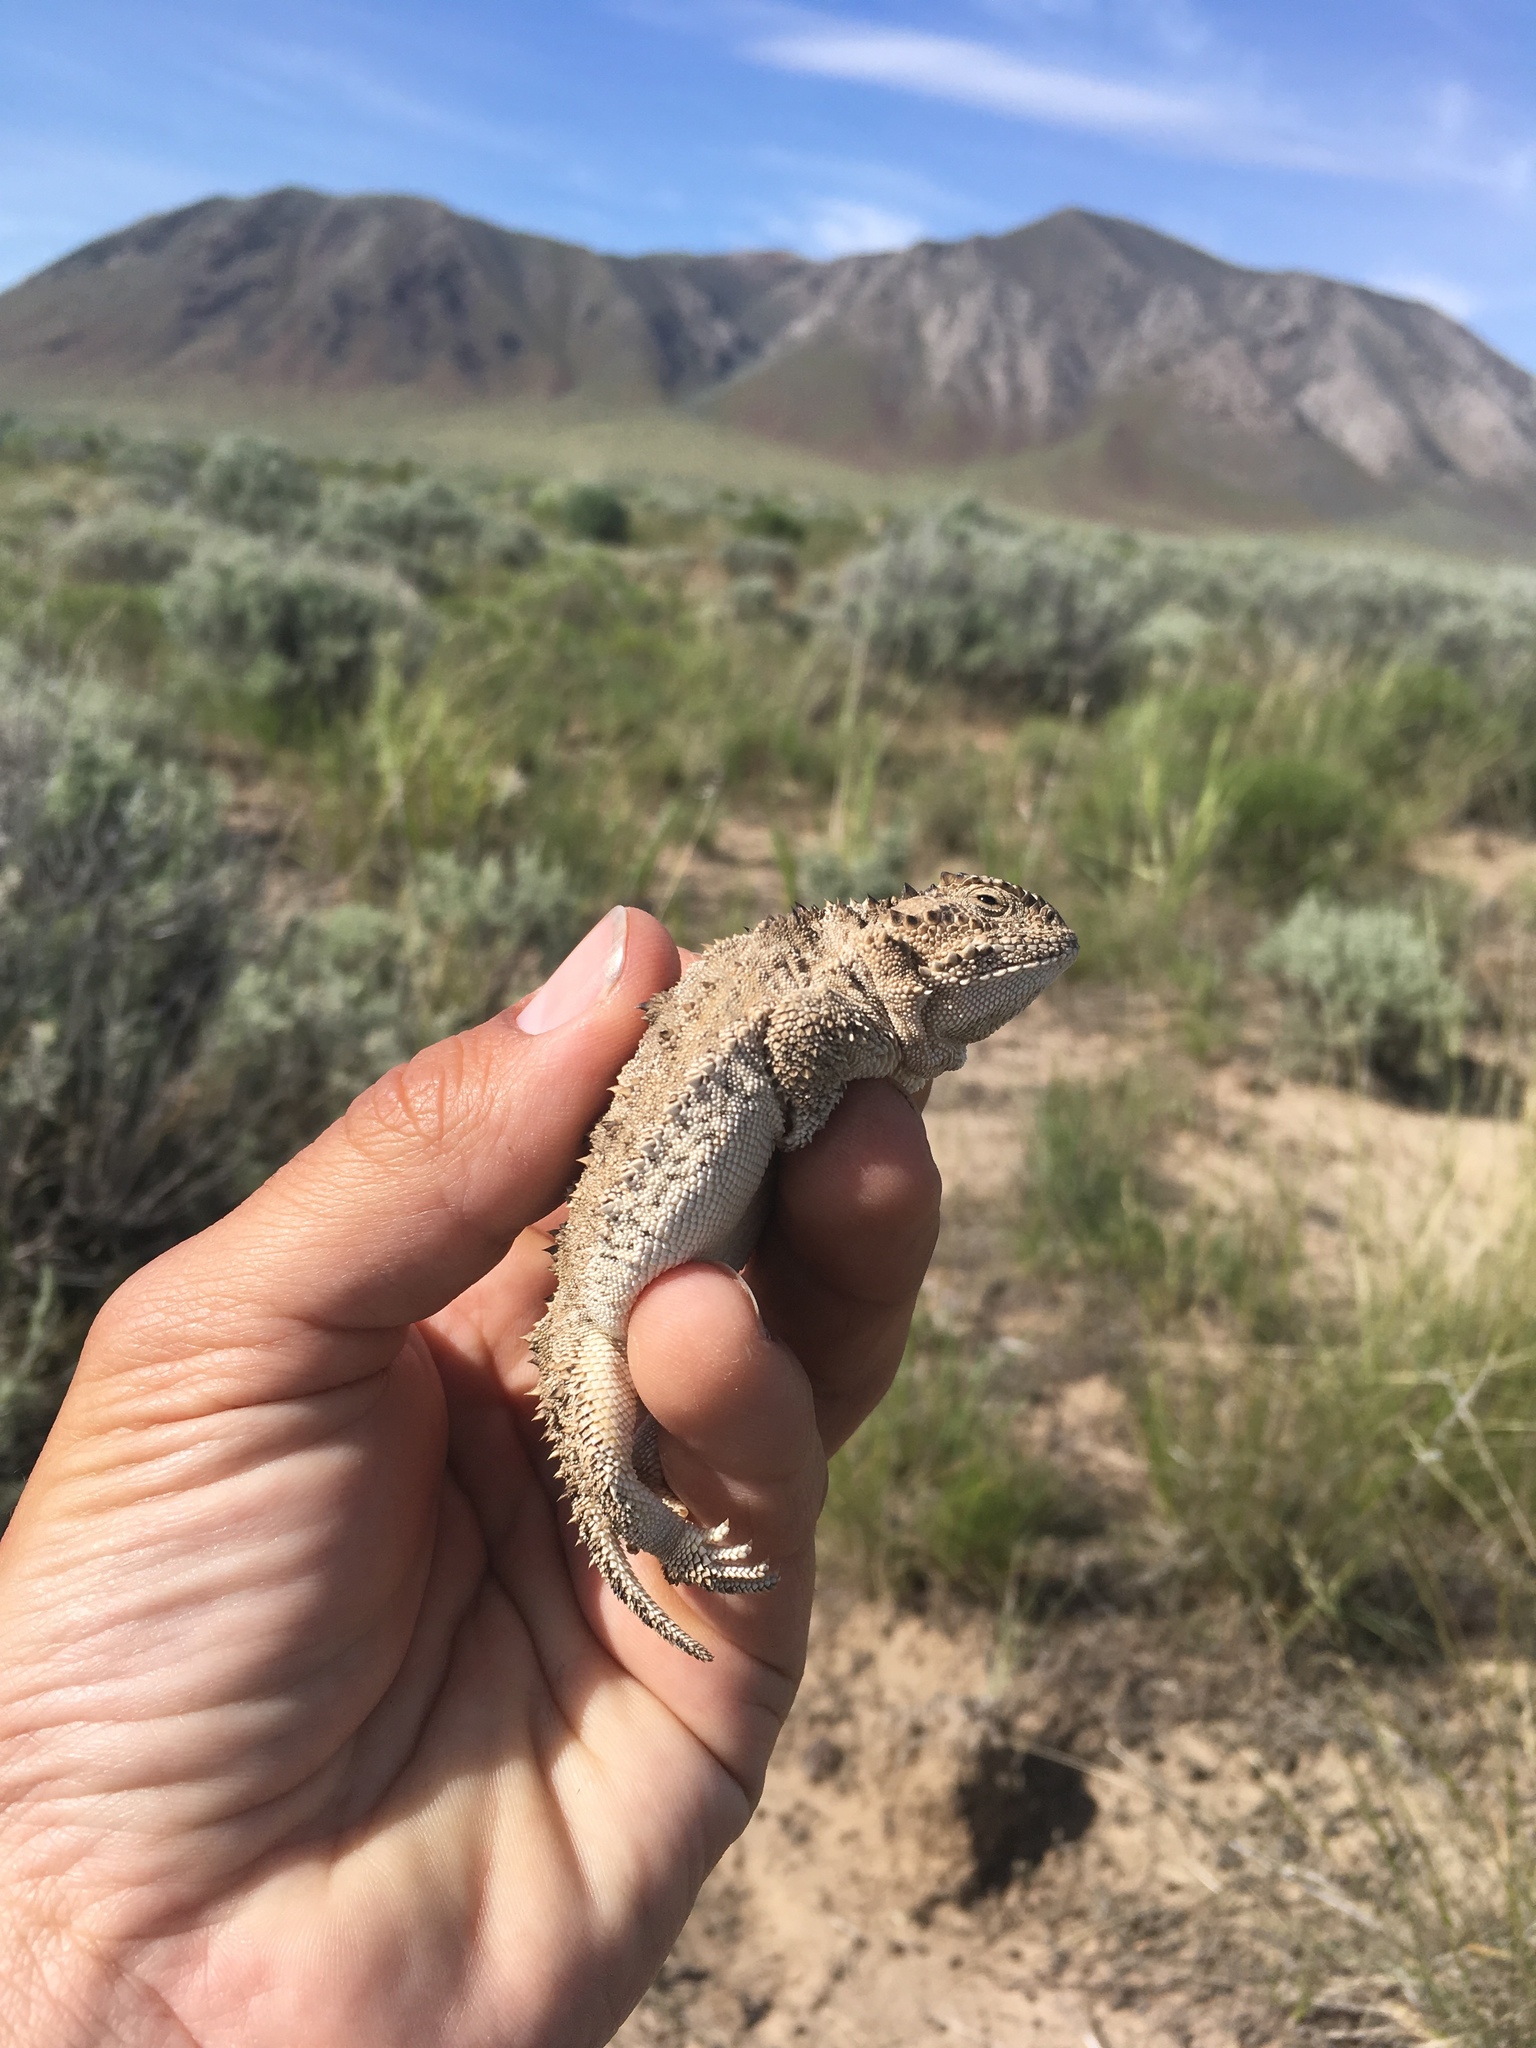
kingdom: Animalia
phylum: Chordata
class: Squamata
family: Phrynosomatidae
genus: Phrynosoma
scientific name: Phrynosoma douglasii
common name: Short-horned lizard
